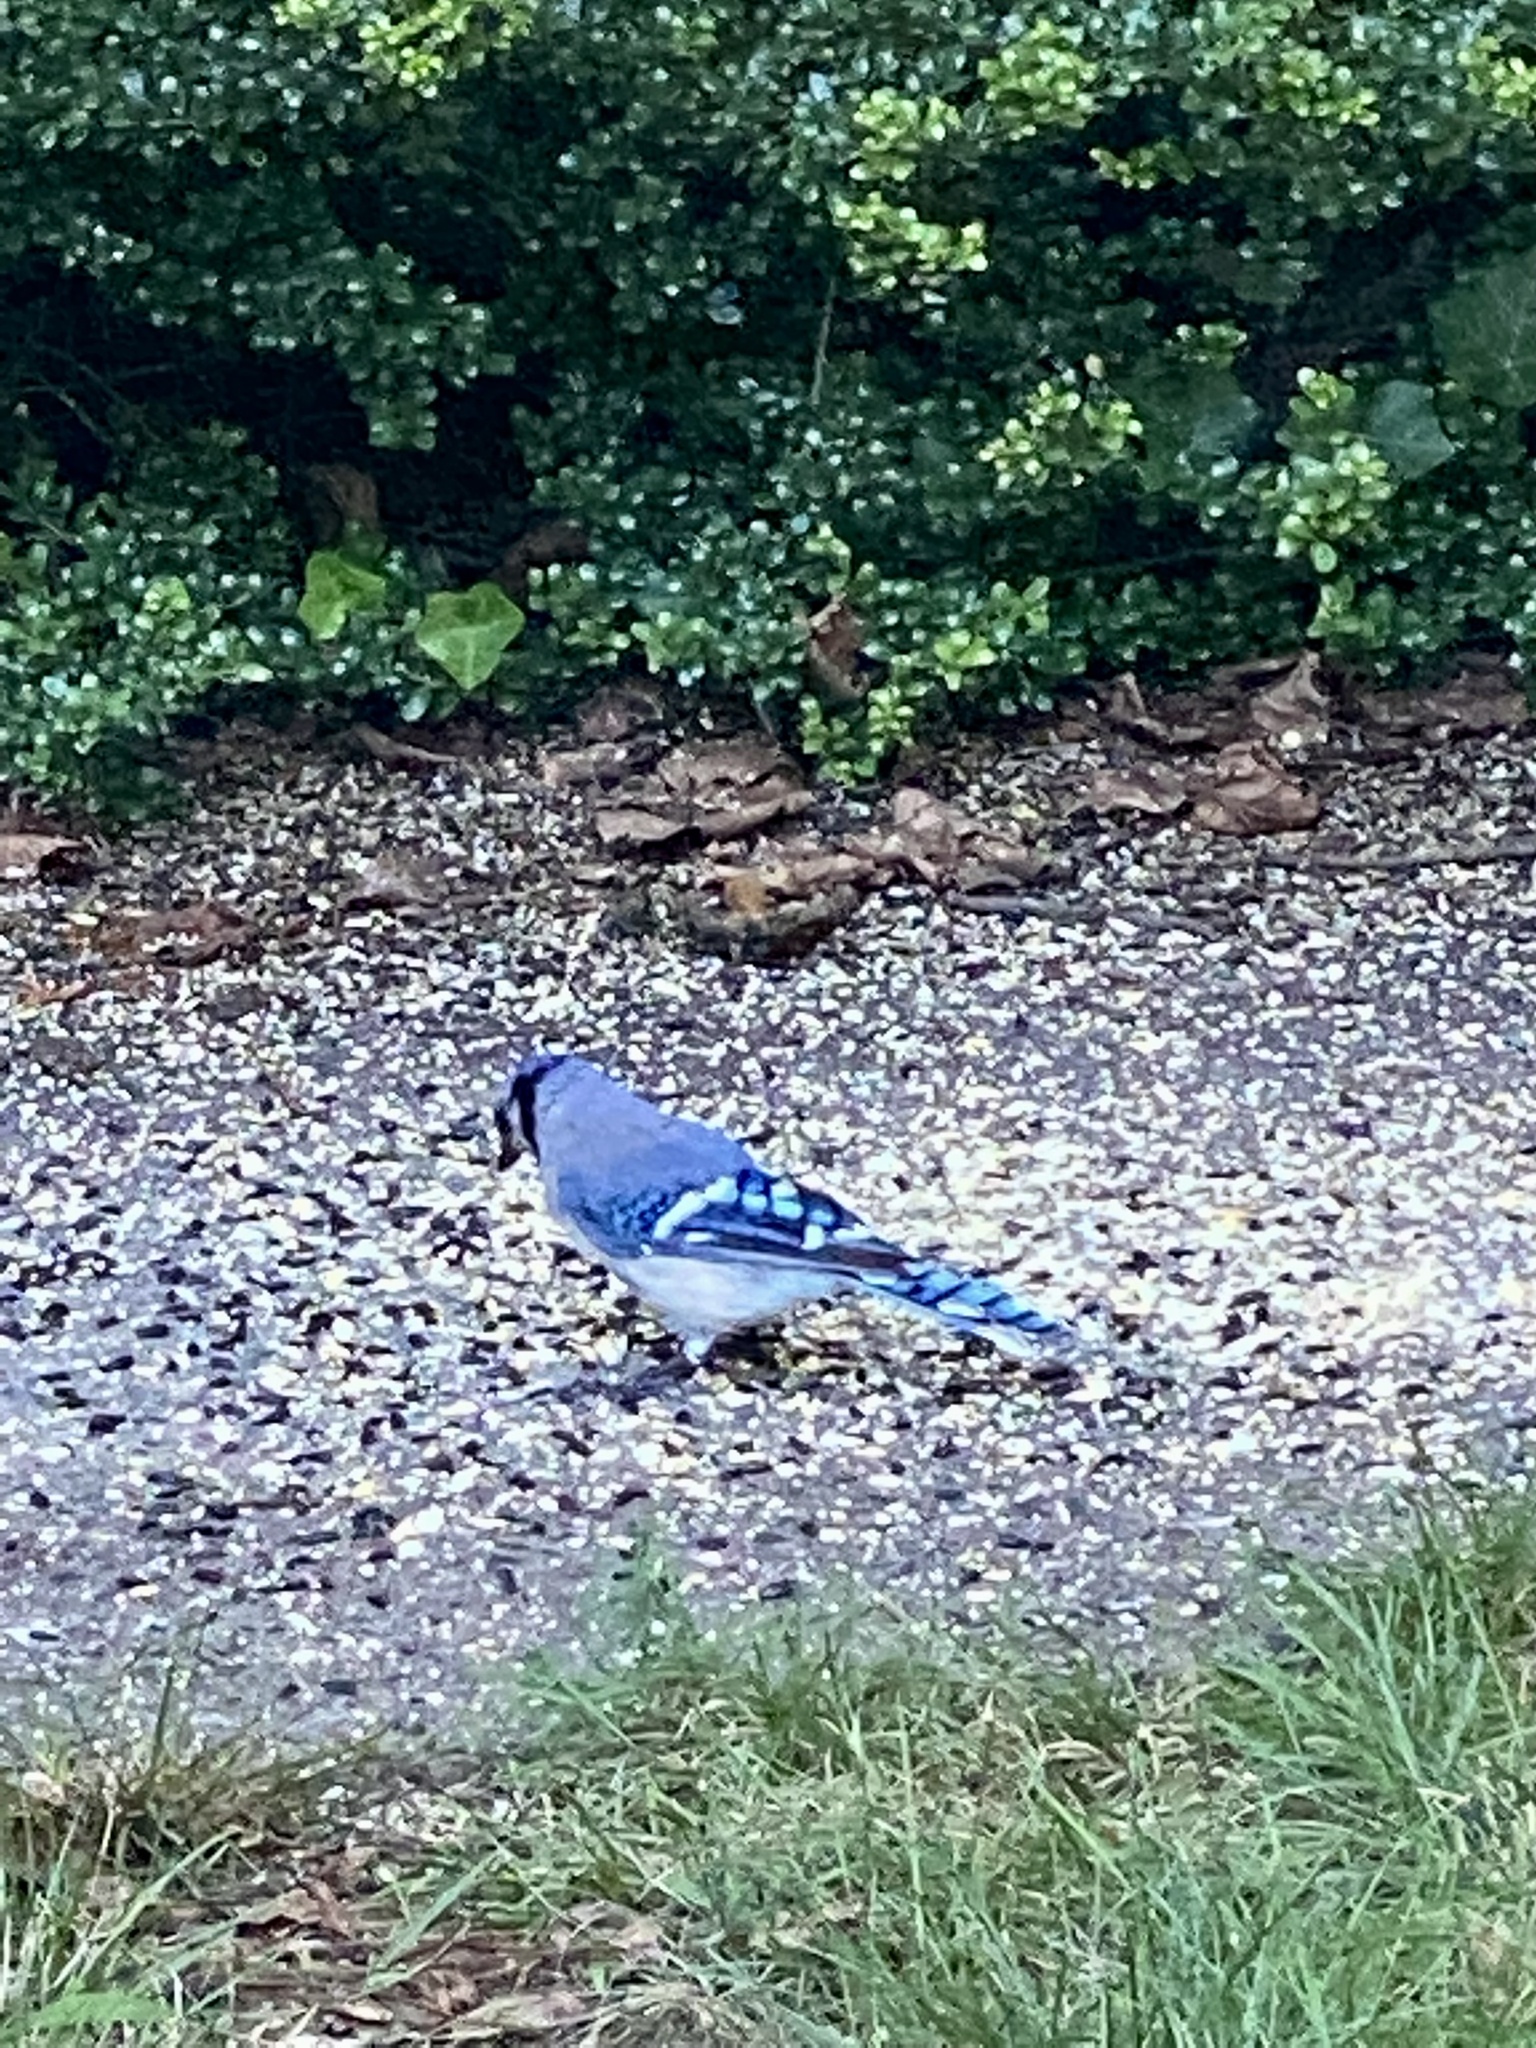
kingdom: Animalia
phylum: Chordata
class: Aves
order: Passeriformes
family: Corvidae
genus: Cyanocitta
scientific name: Cyanocitta cristata
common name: Blue jay
